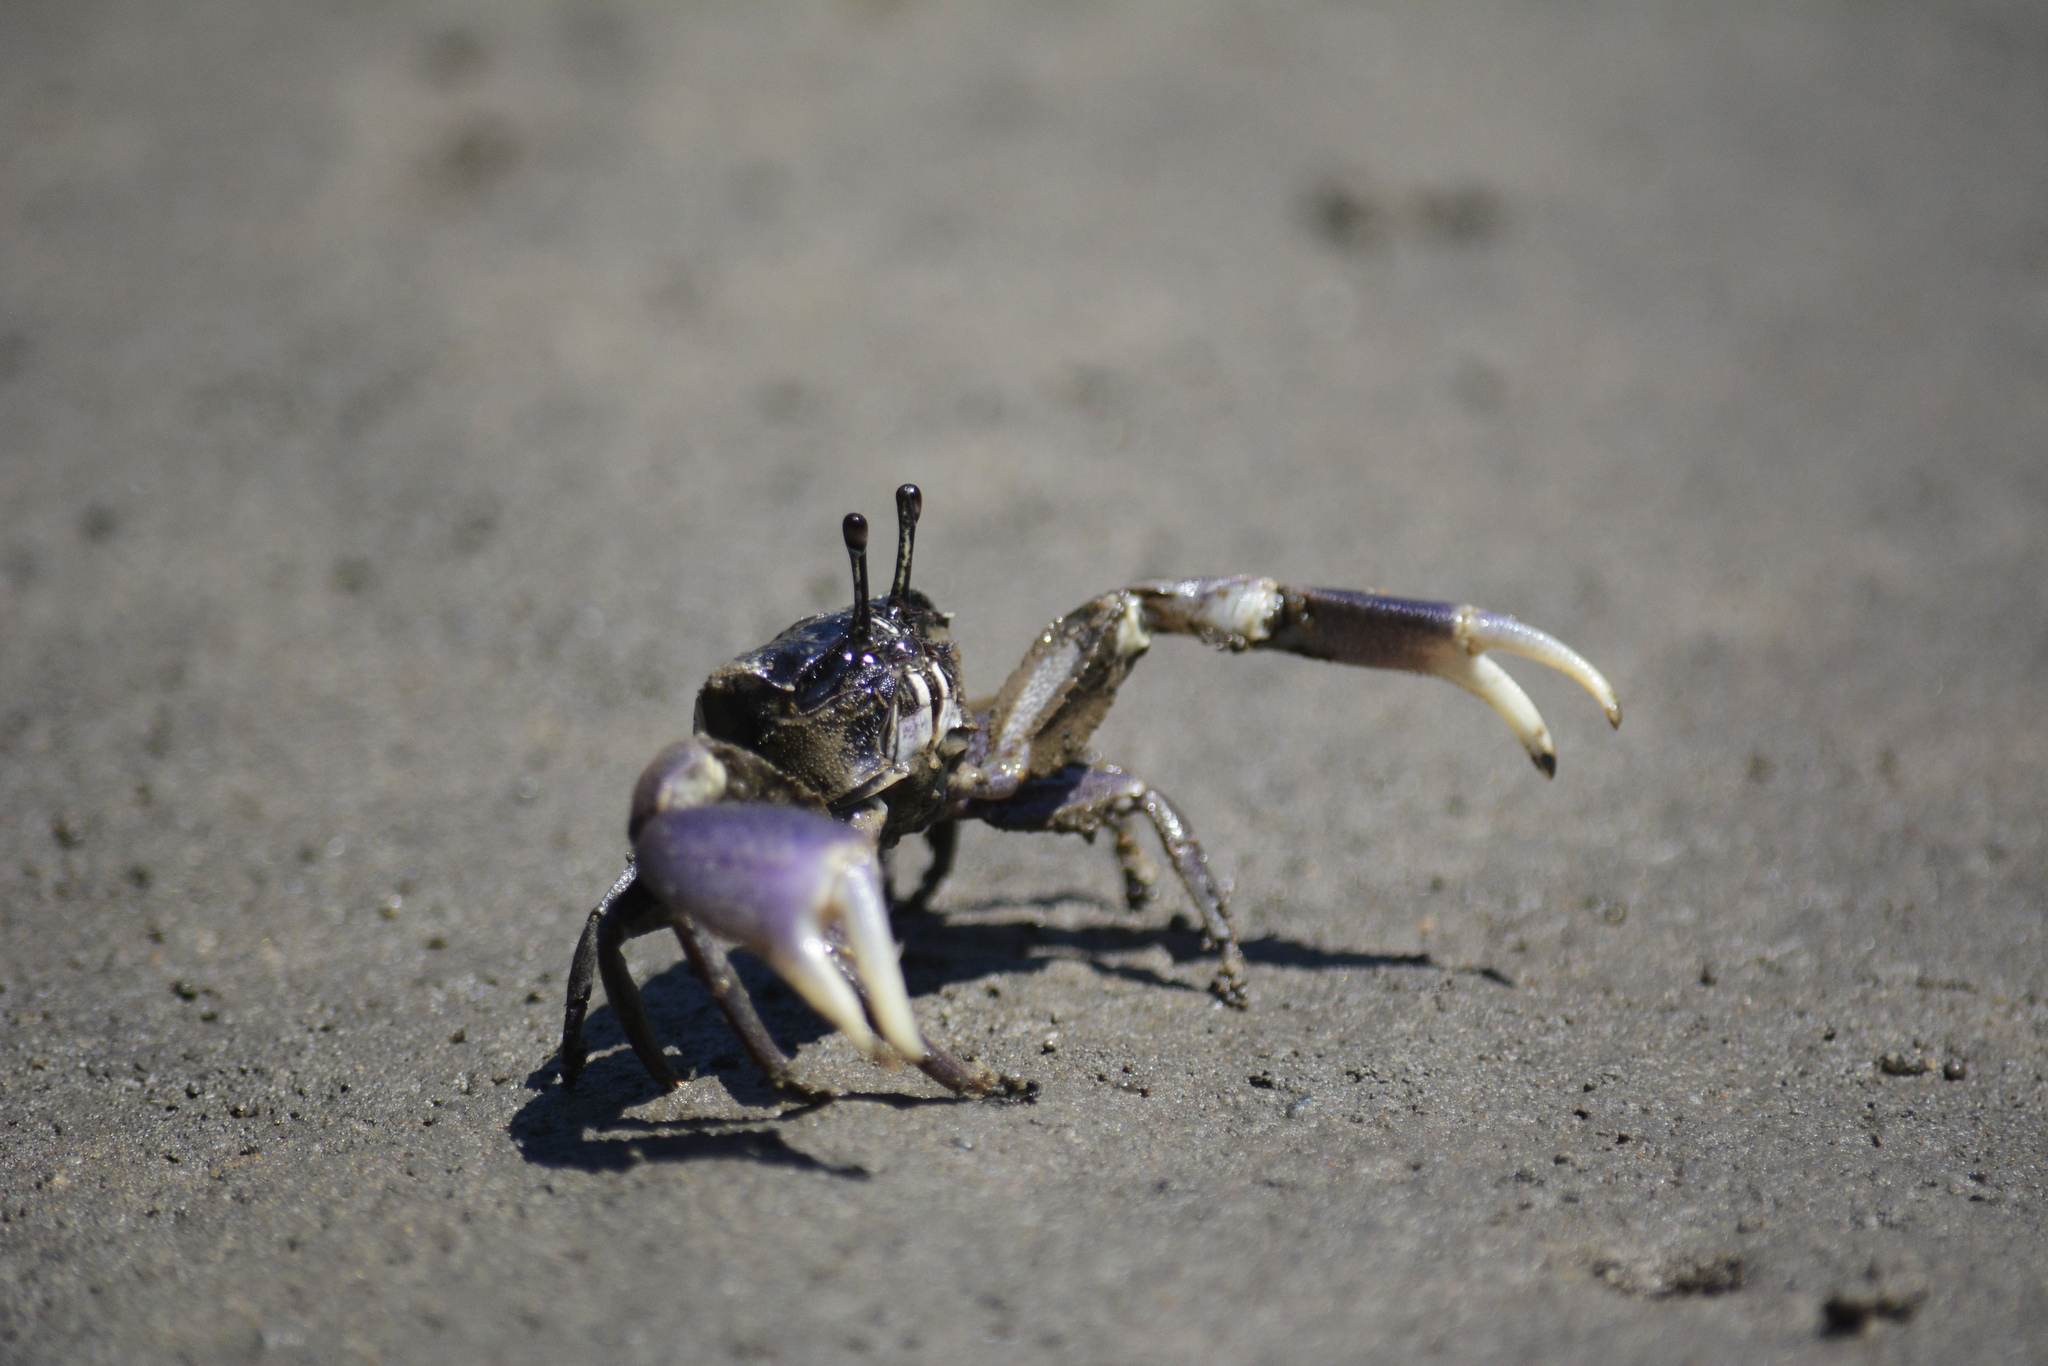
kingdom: Animalia
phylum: Arthropoda
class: Malacostraca
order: Decapoda
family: Heloeciidae
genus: Heloecius
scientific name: Heloecius cordiformis
